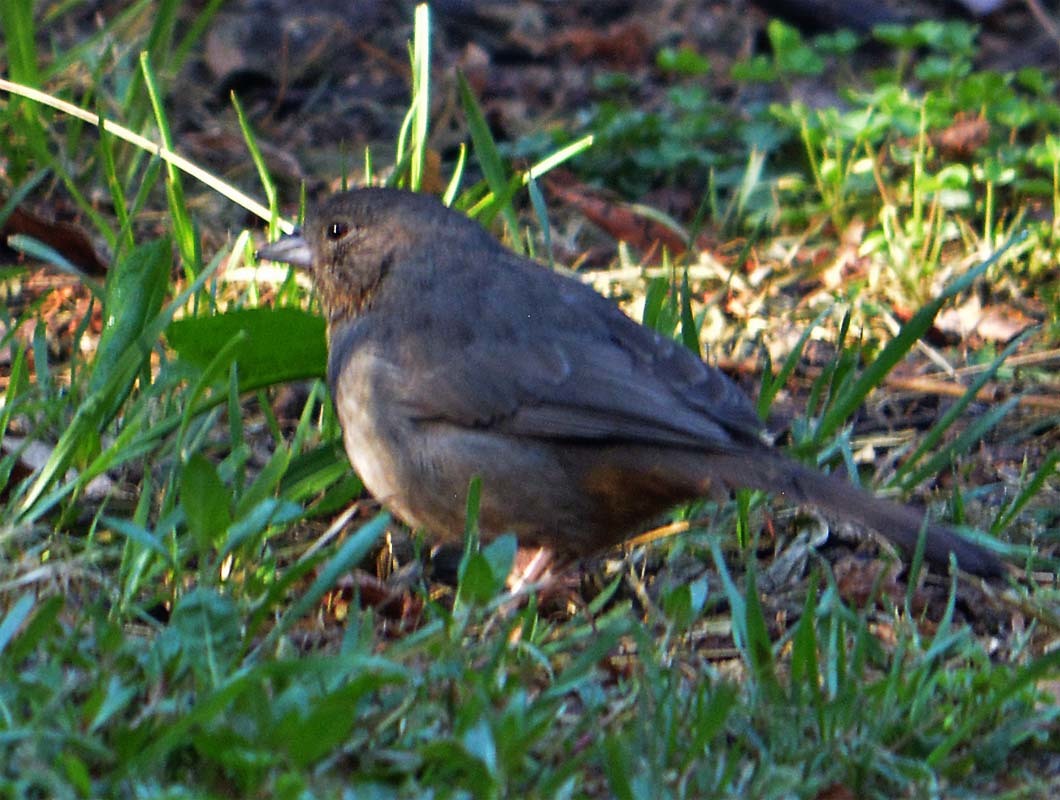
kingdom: Animalia
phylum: Chordata
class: Aves
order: Passeriformes
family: Passerellidae
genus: Melozone
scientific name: Melozone fusca
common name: Canyon towhee
